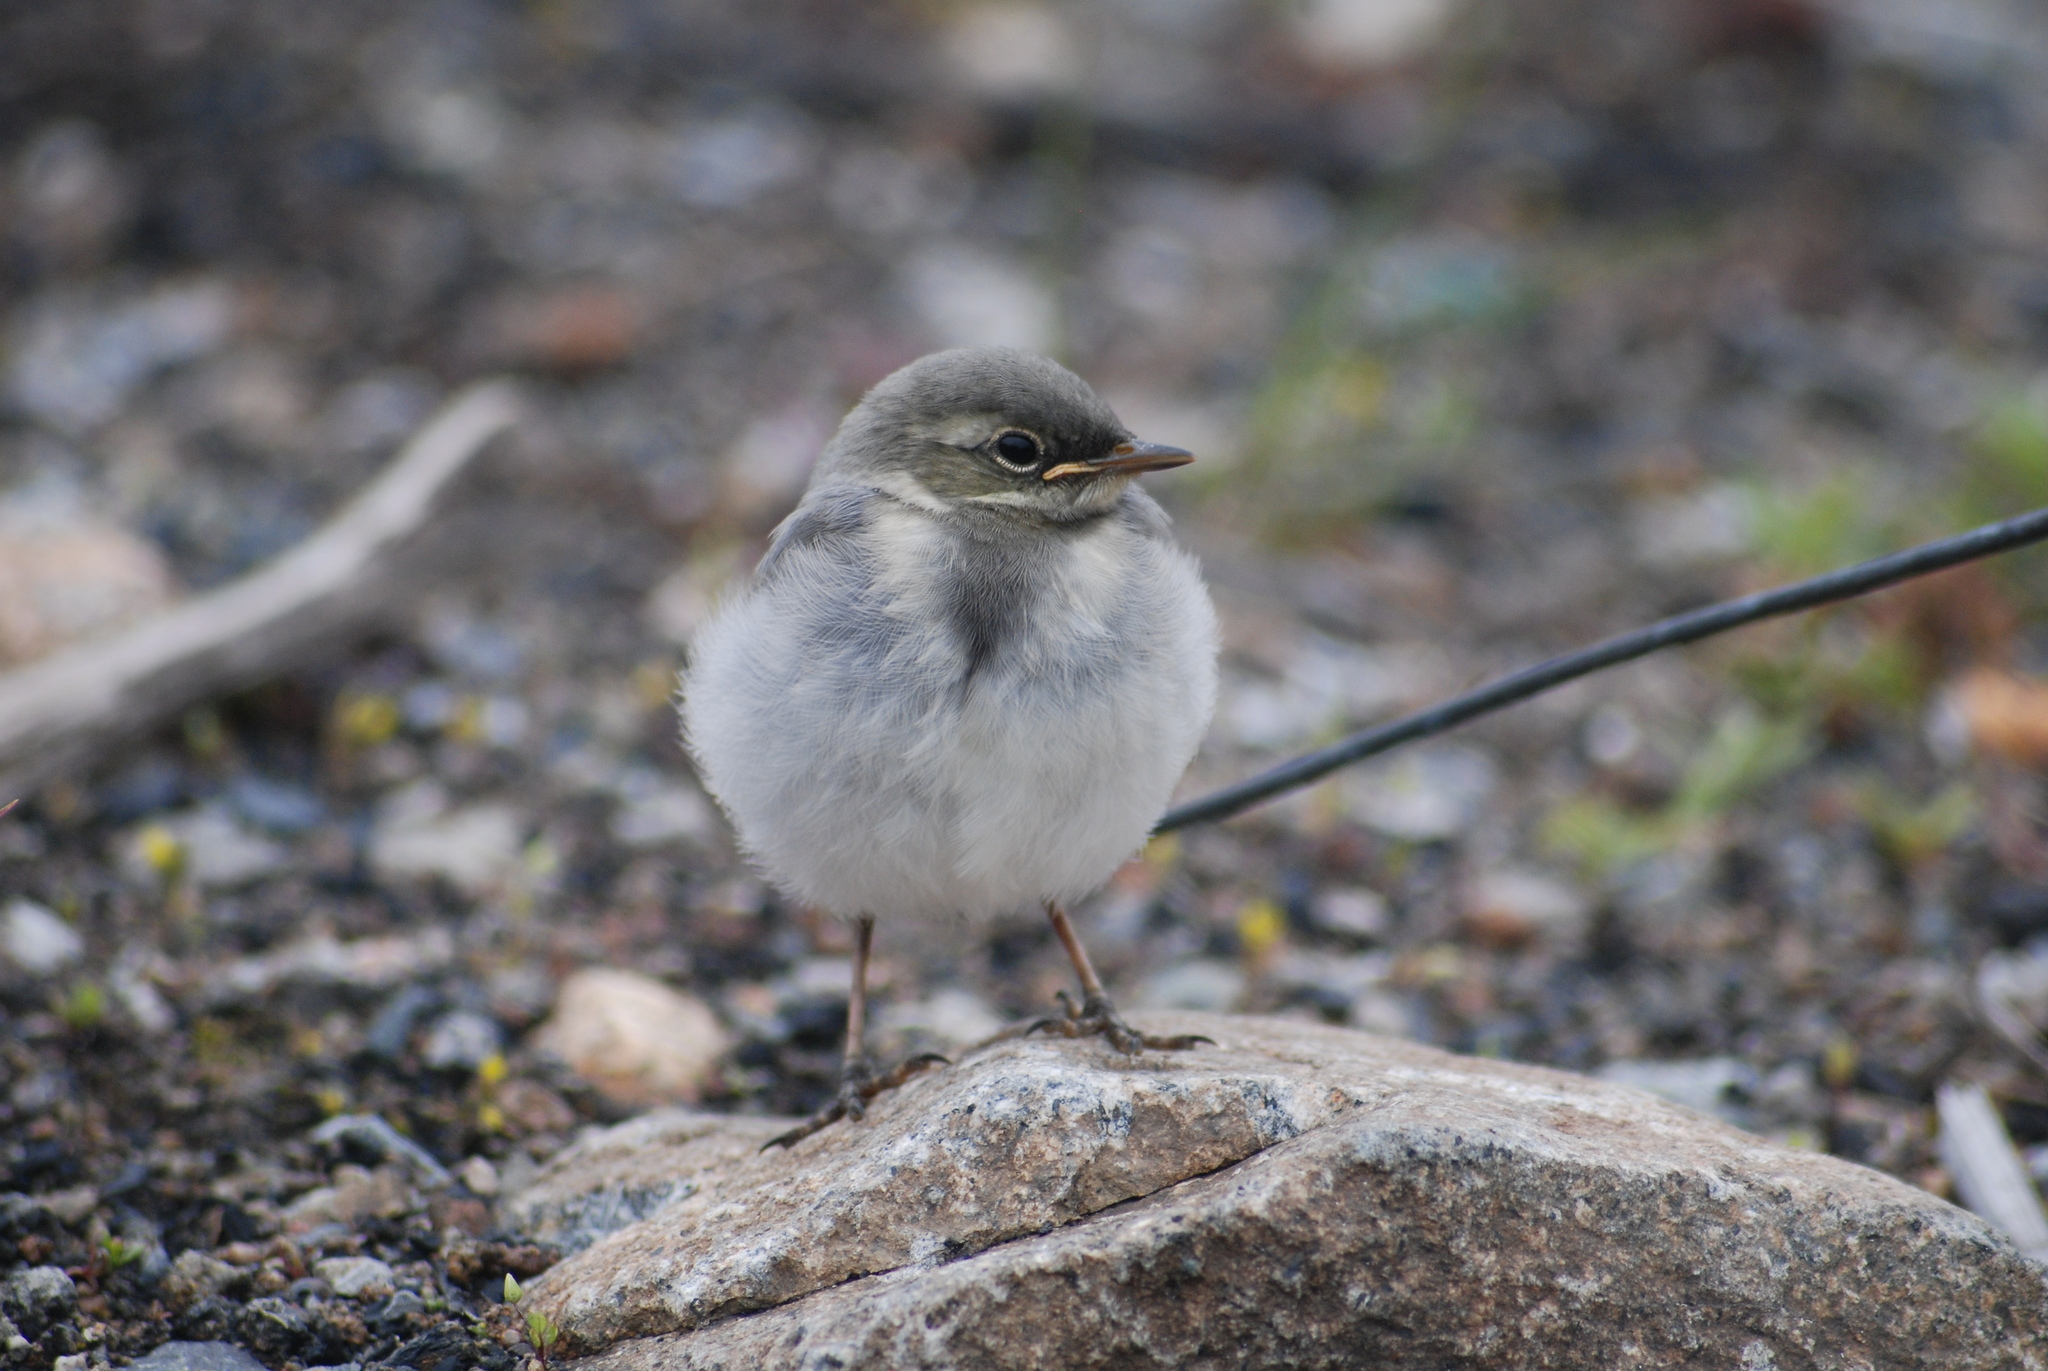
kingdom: Animalia
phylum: Chordata
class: Aves
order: Passeriformes
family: Motacillidae
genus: Motacilla
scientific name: Motacilla alba
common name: White wagtail
